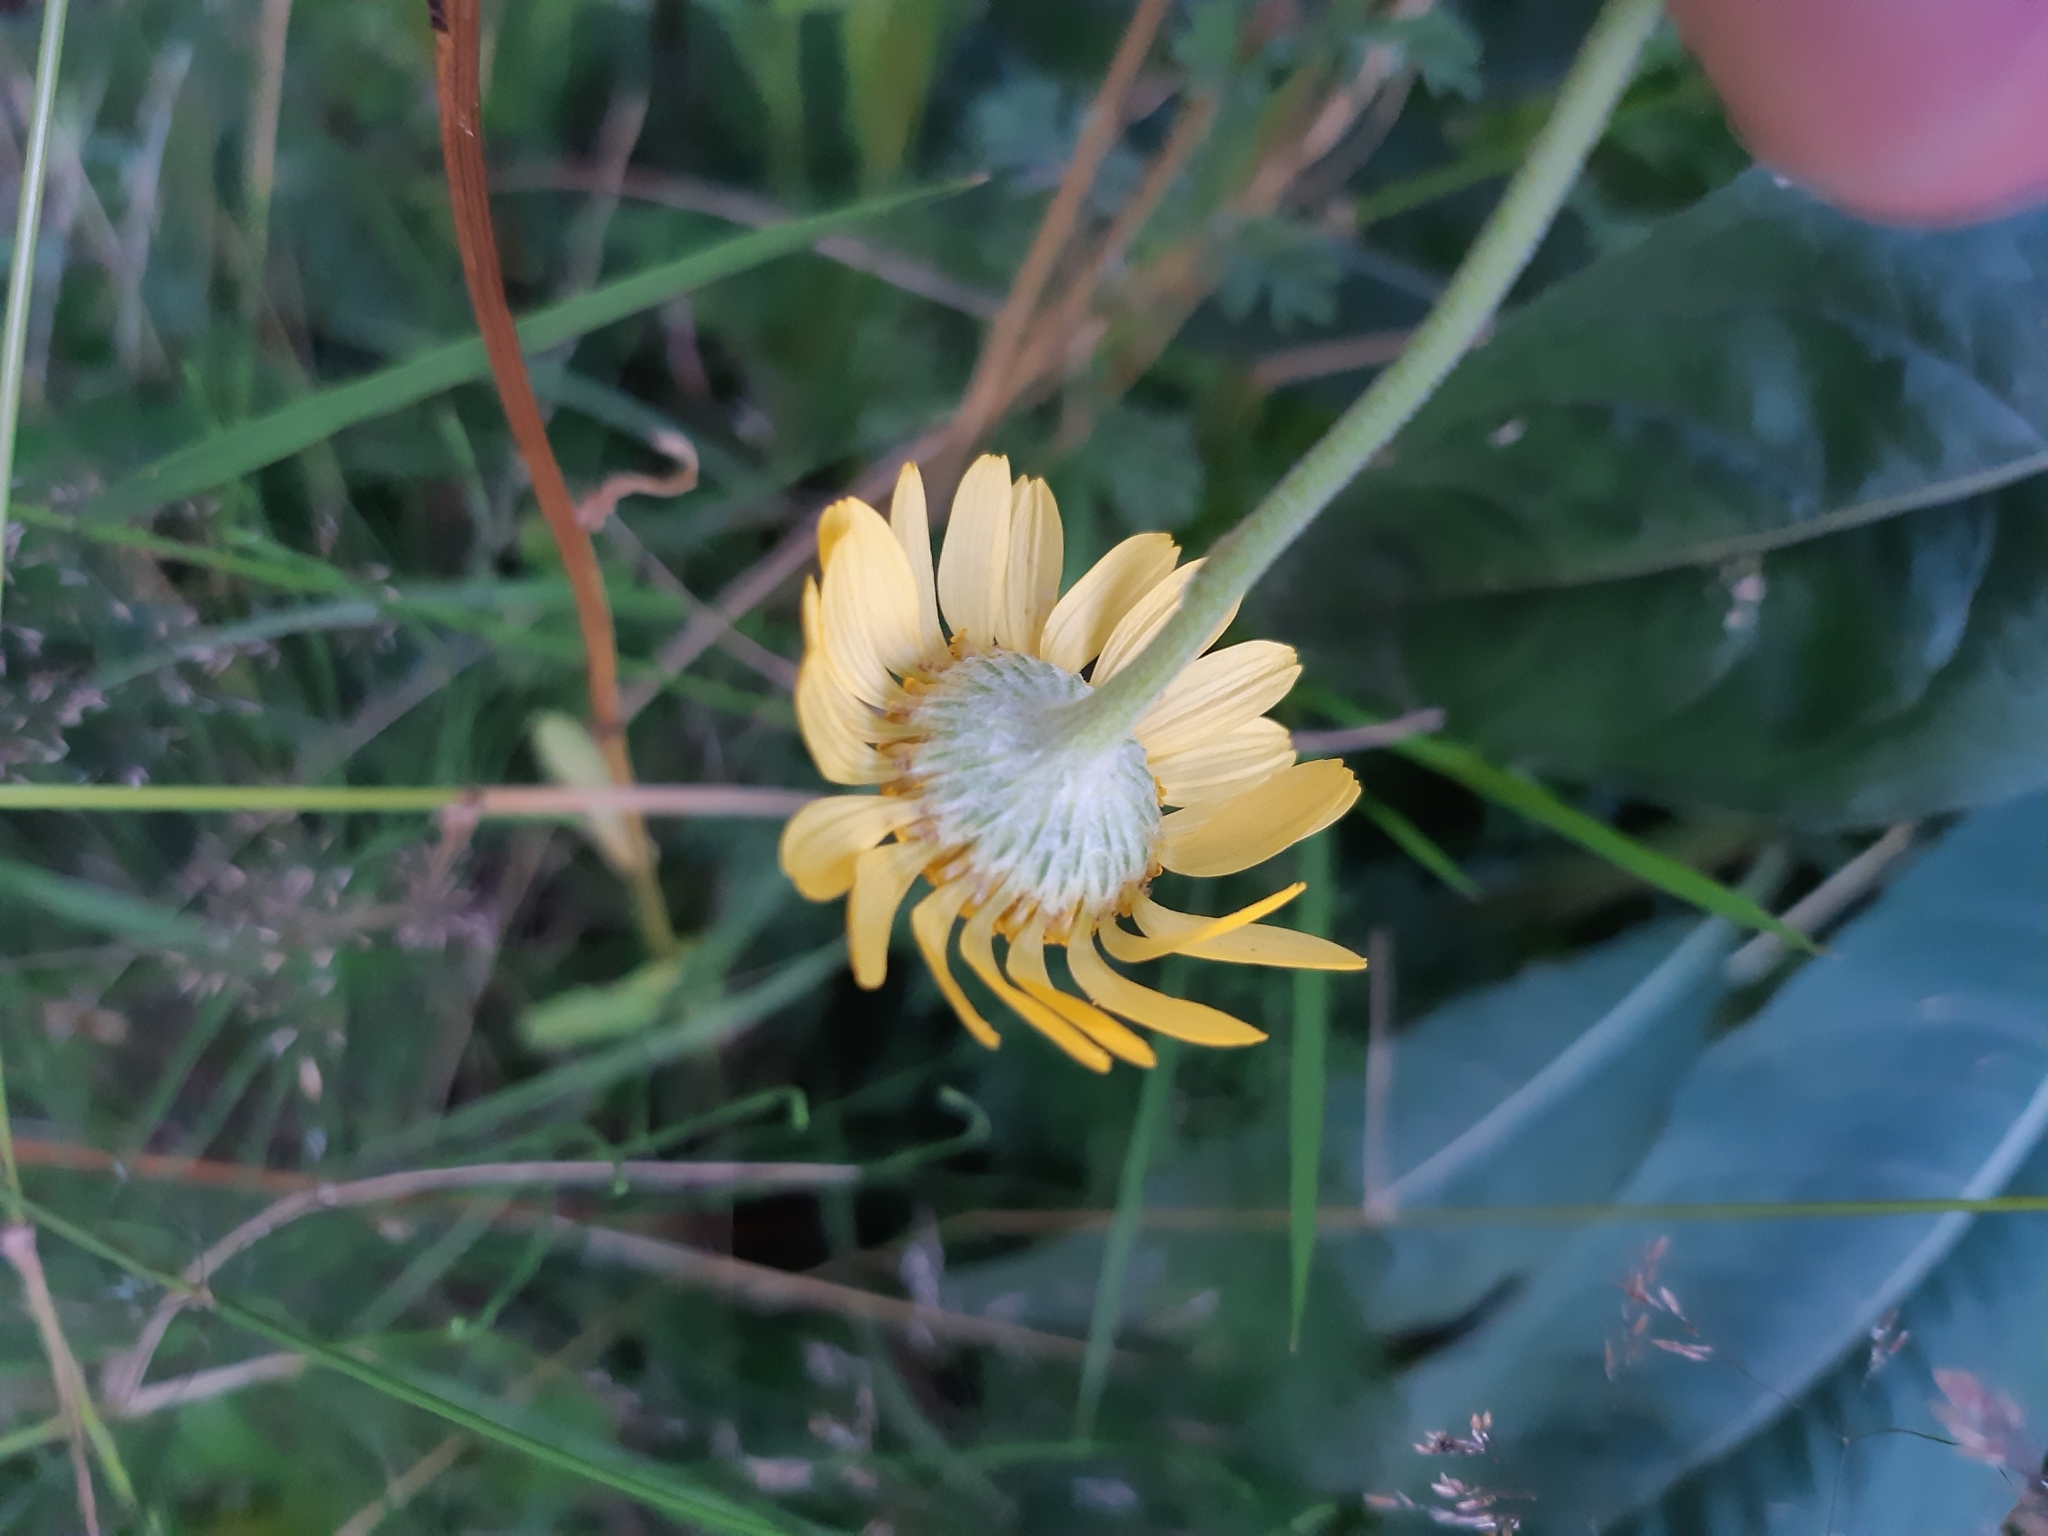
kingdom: Plantae
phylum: Tracheophyta
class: Magnoliopsida
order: Asterales
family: Asteraceae
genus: Cota
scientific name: Cota tinctoria
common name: Golden chamomile
